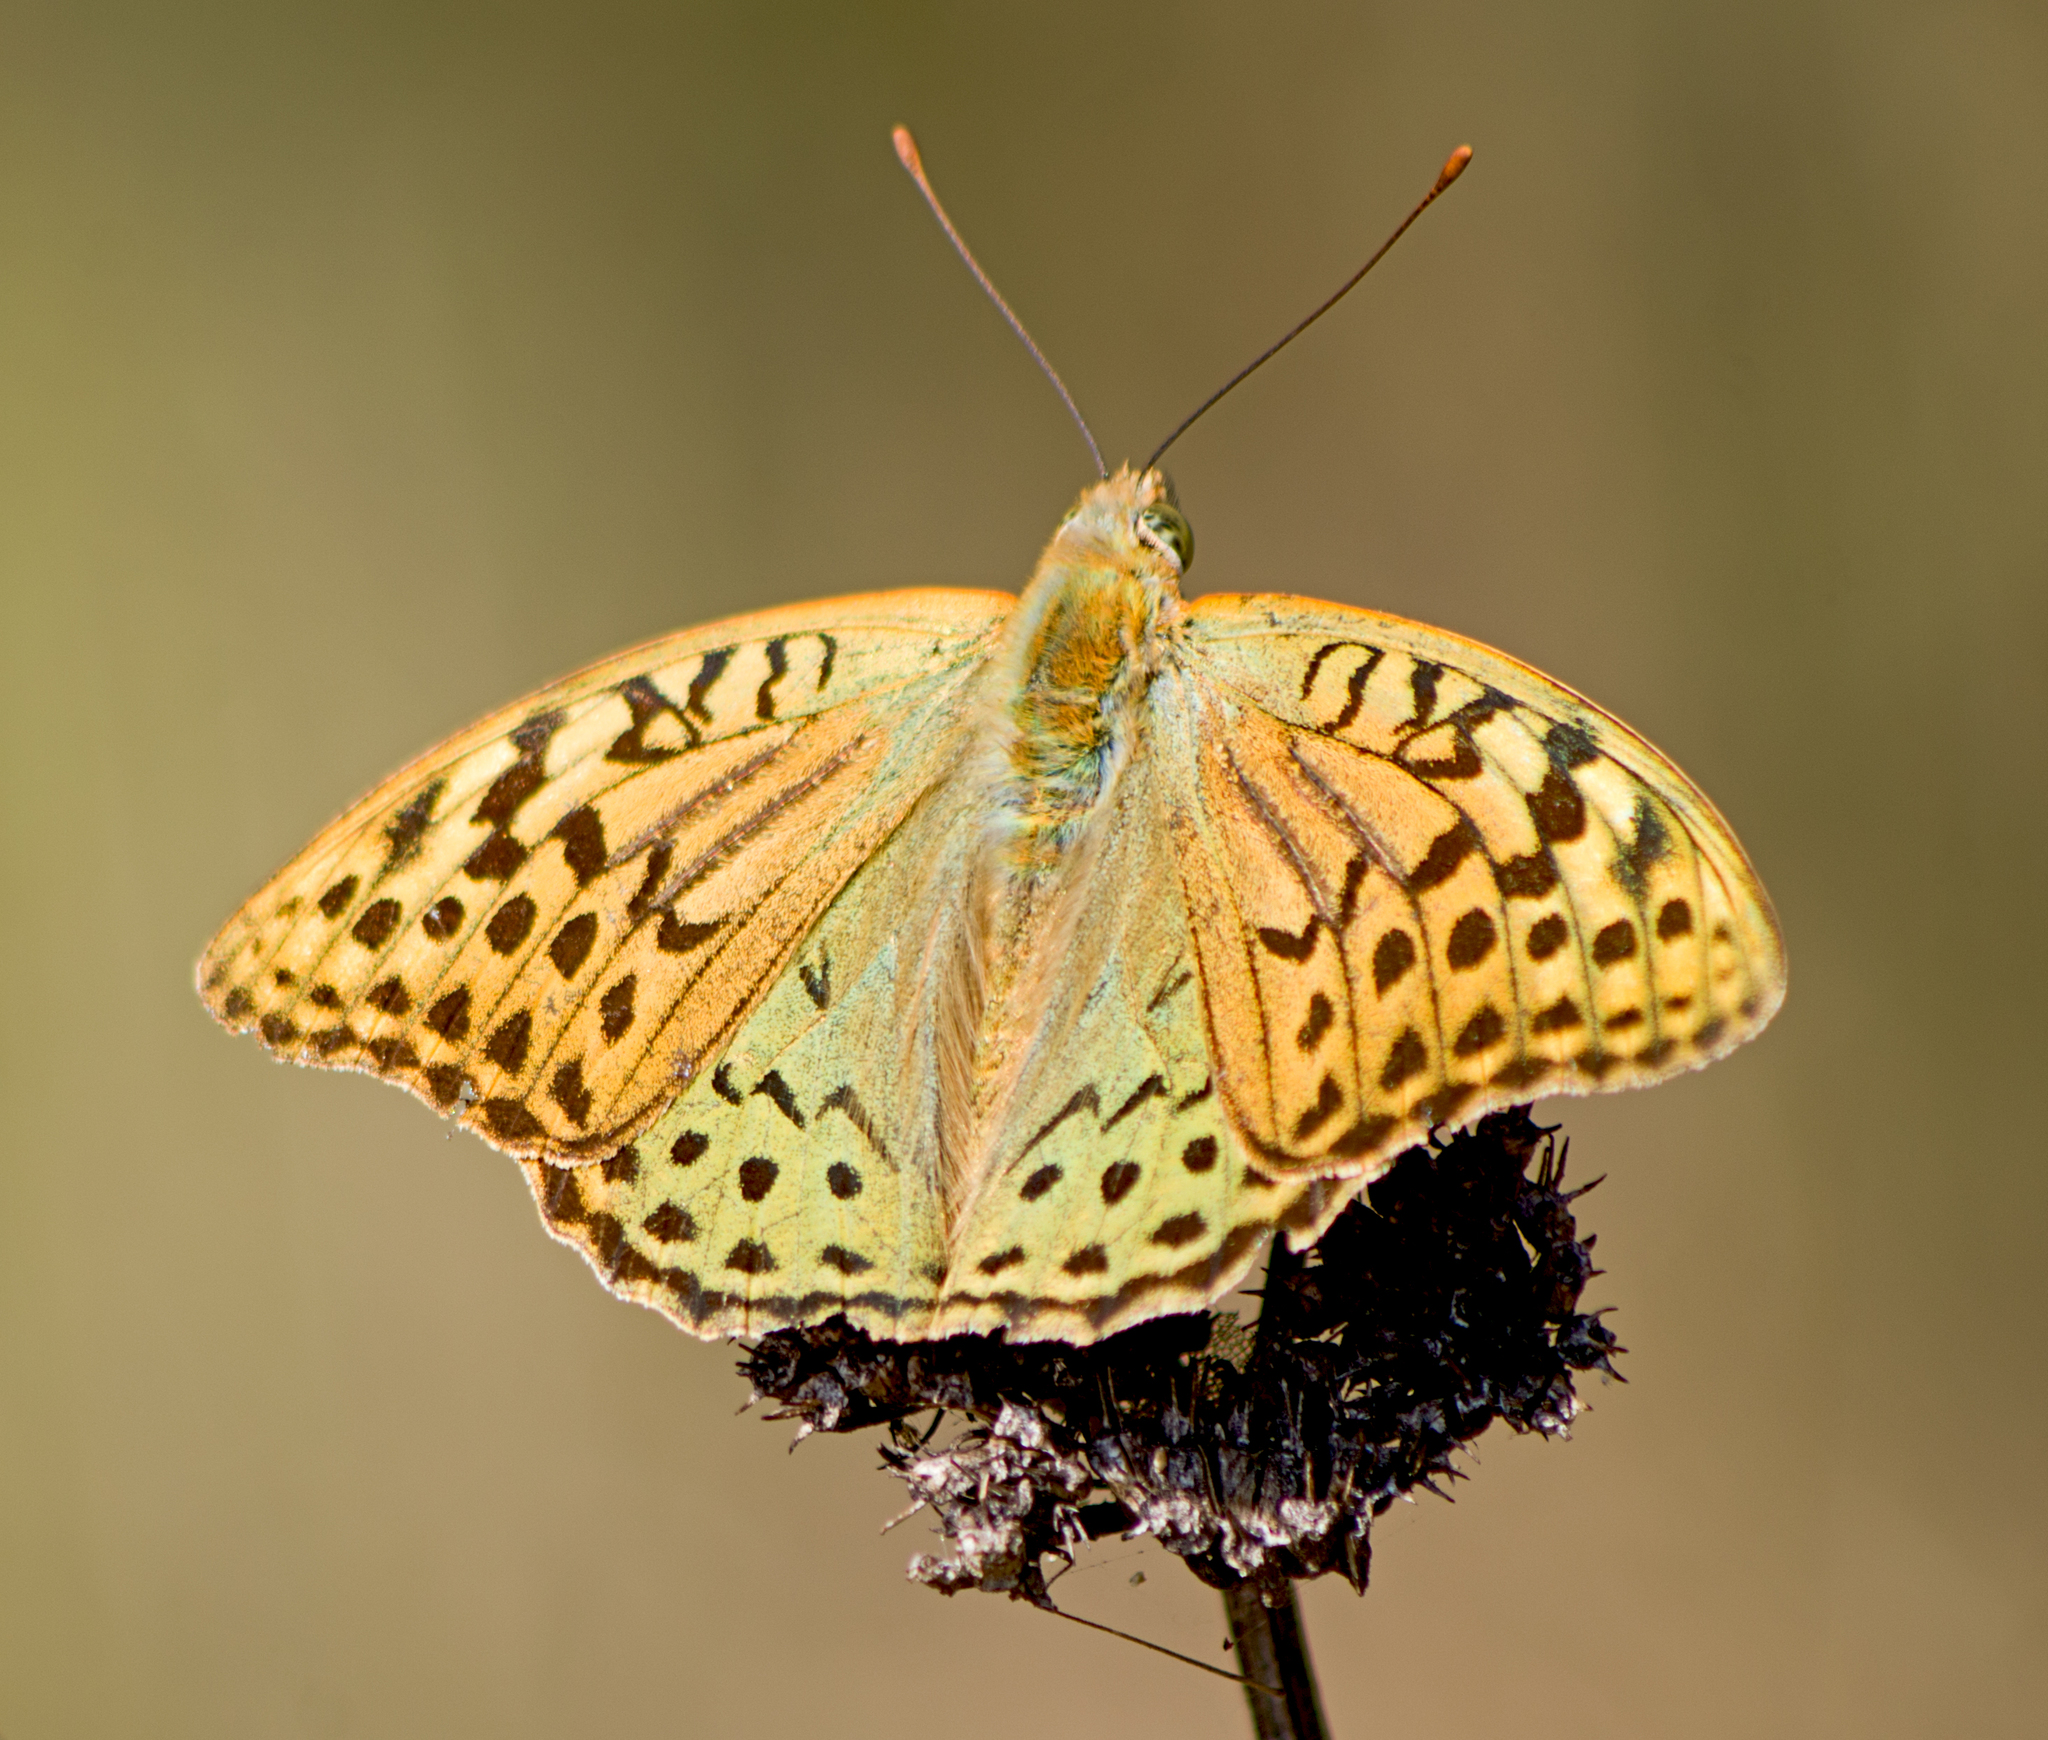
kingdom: Animalia
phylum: Arthropoda
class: Insecta
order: Lepidoptera
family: Nymphalidae
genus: Damora
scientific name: Damora pandora
